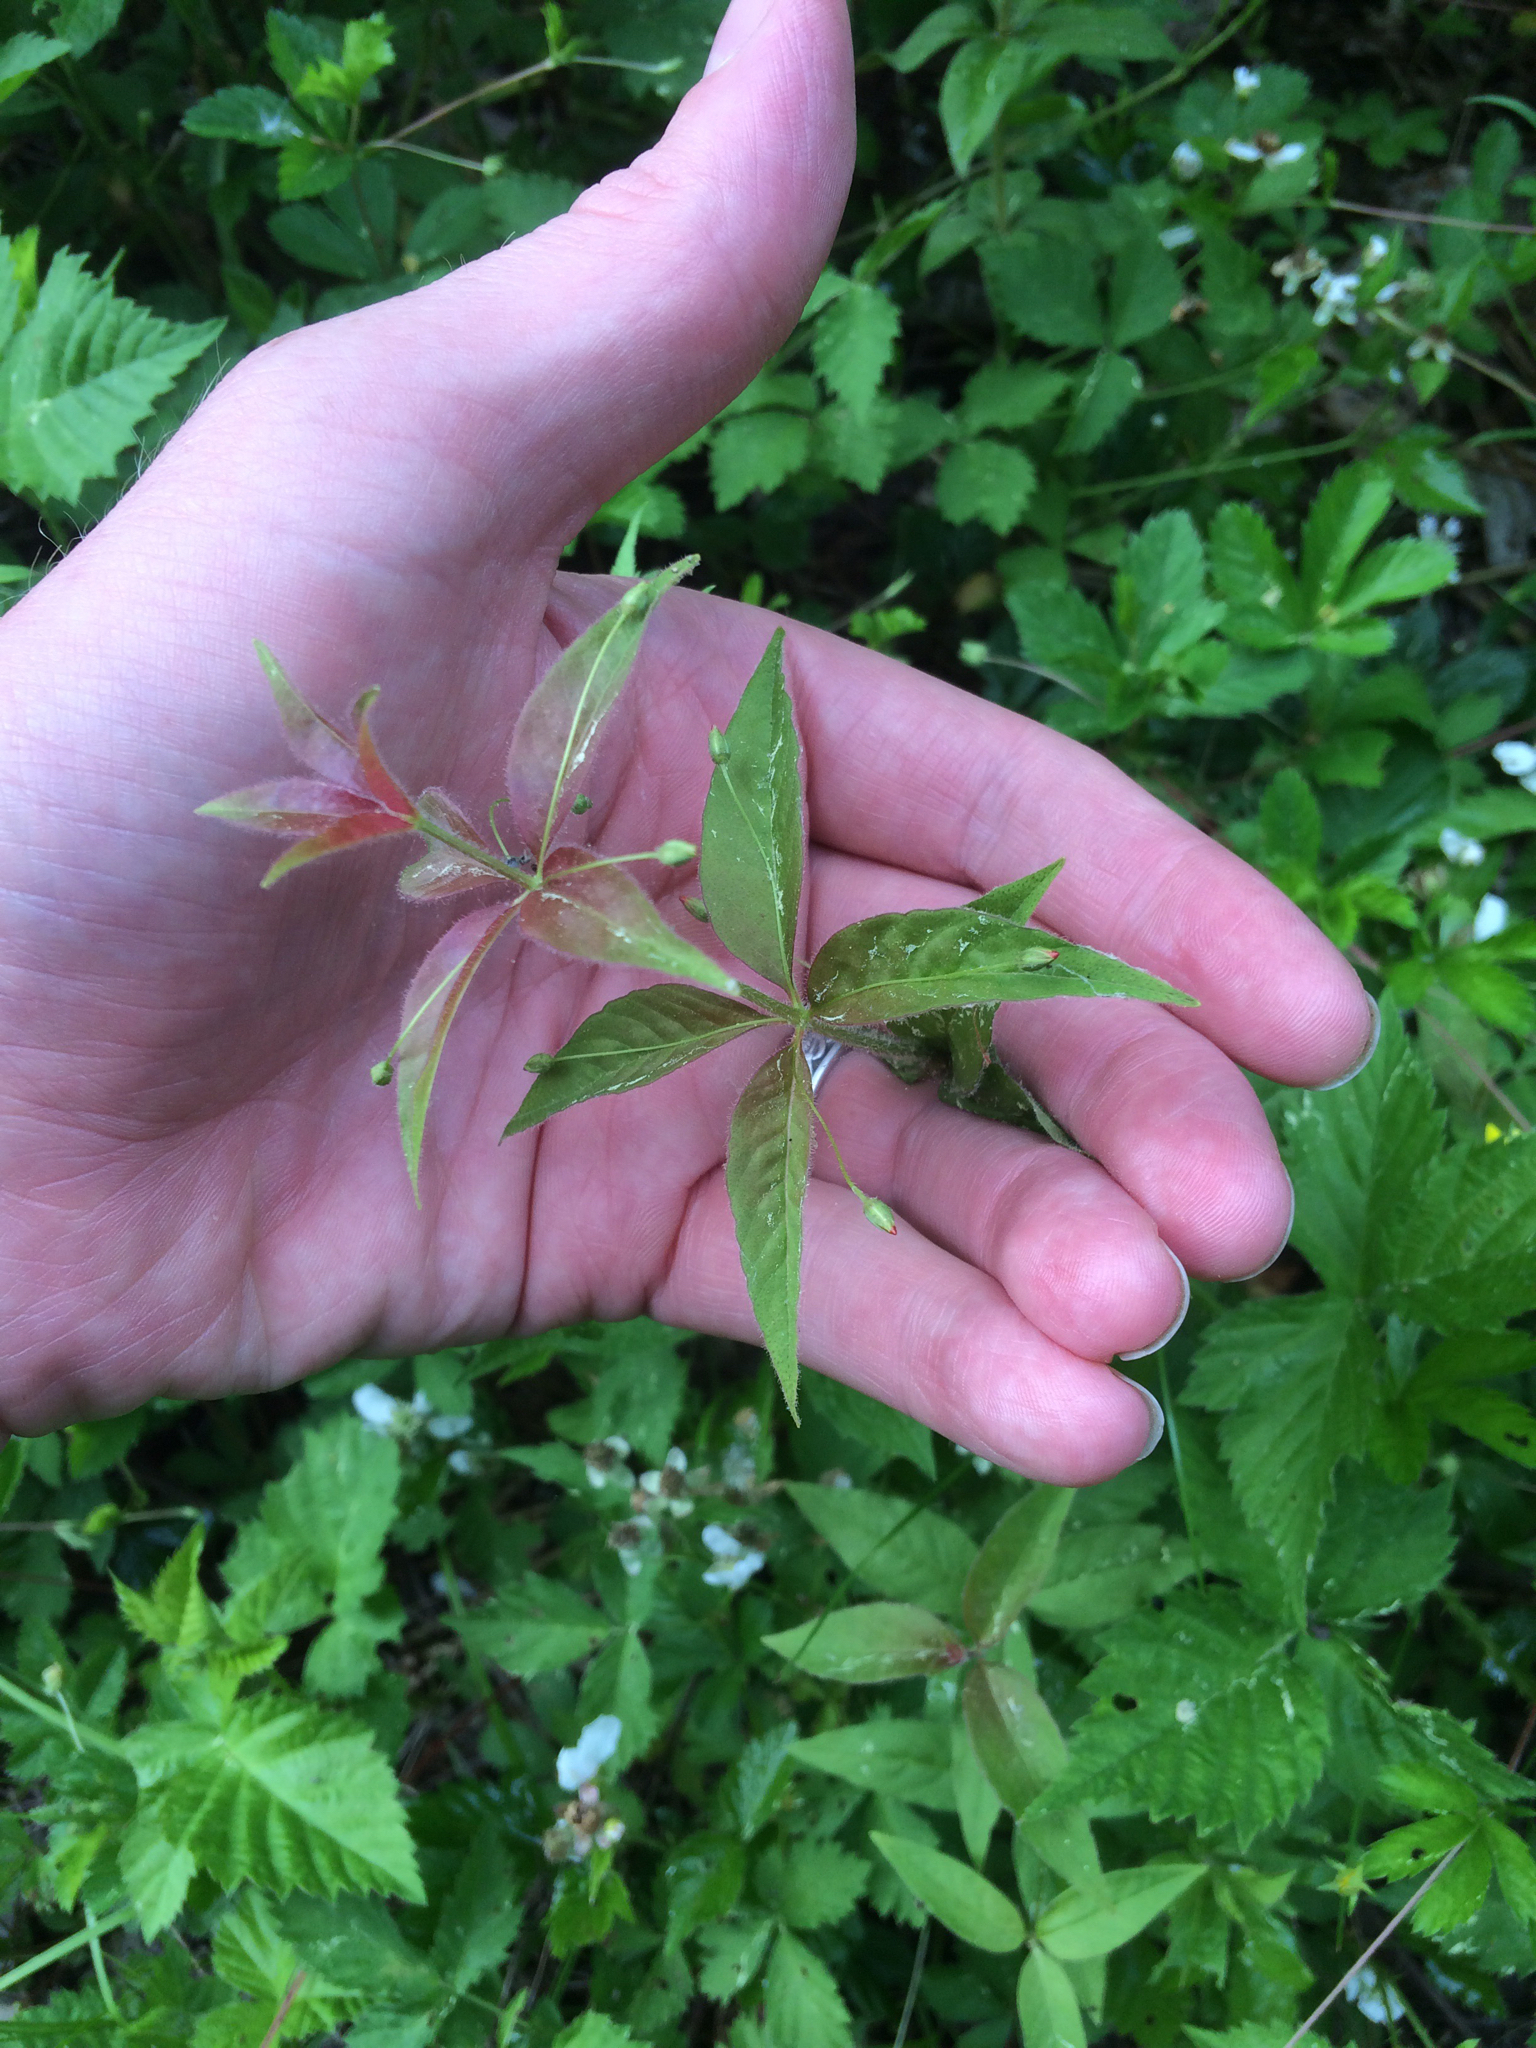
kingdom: Plantae
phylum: Tracheophyta
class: Magnoliopsida
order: Ericales
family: Primulaceae
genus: Lysimachia
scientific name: Lysimachia quadrifolia
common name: Whorled loosestrife
